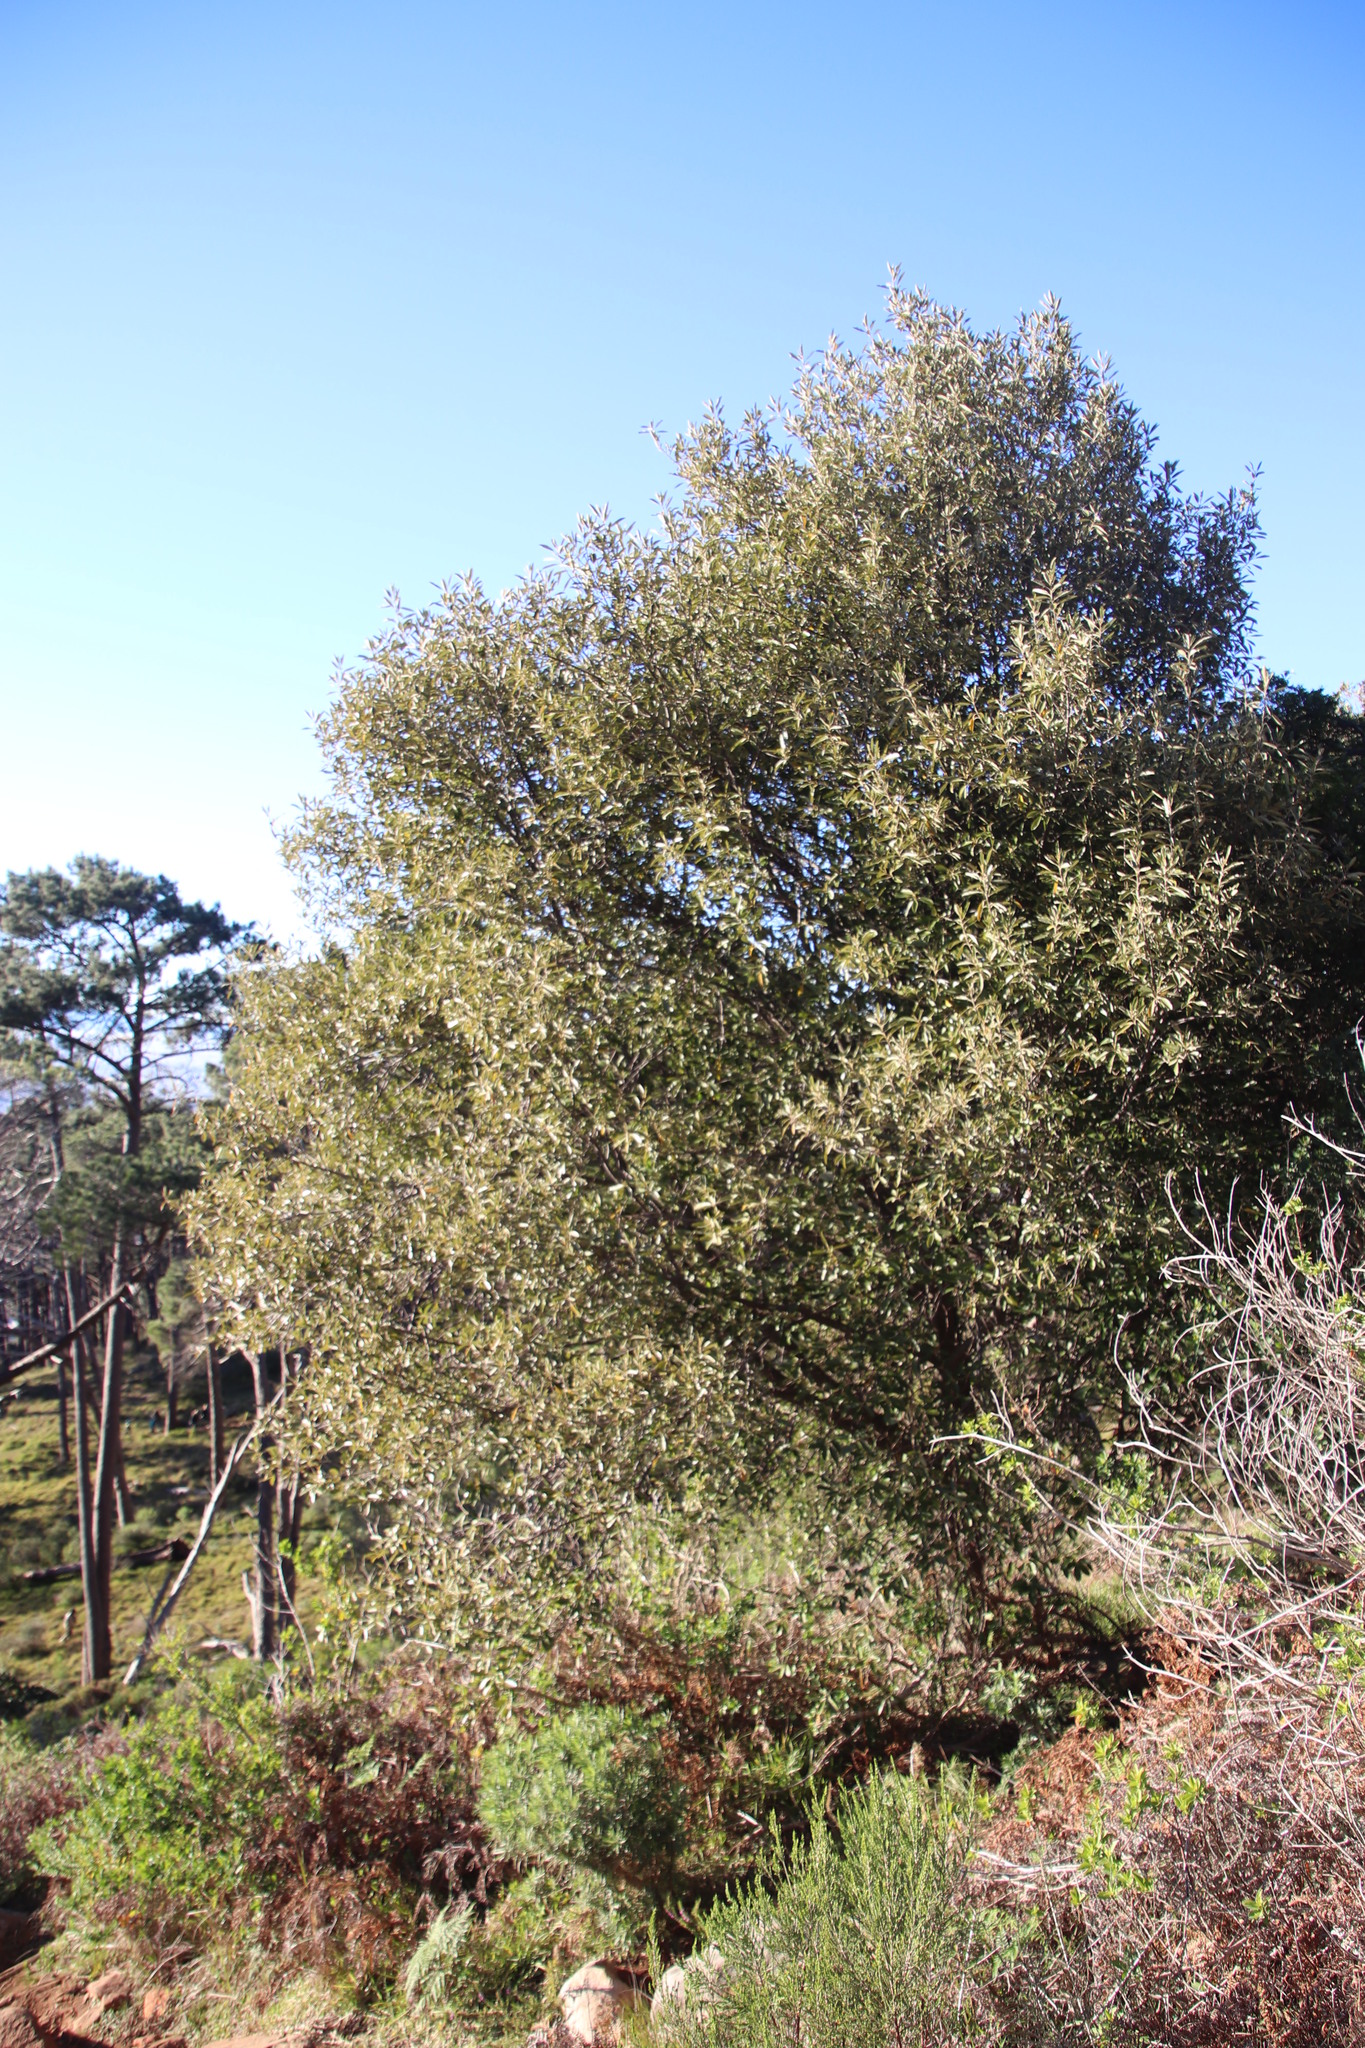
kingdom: Plantae
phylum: Tracheophyta
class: Magnoliopsida
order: Malpighiales
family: Achariaceae
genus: Kiggelaria
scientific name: Kiggelaria africana
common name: Wild peach
